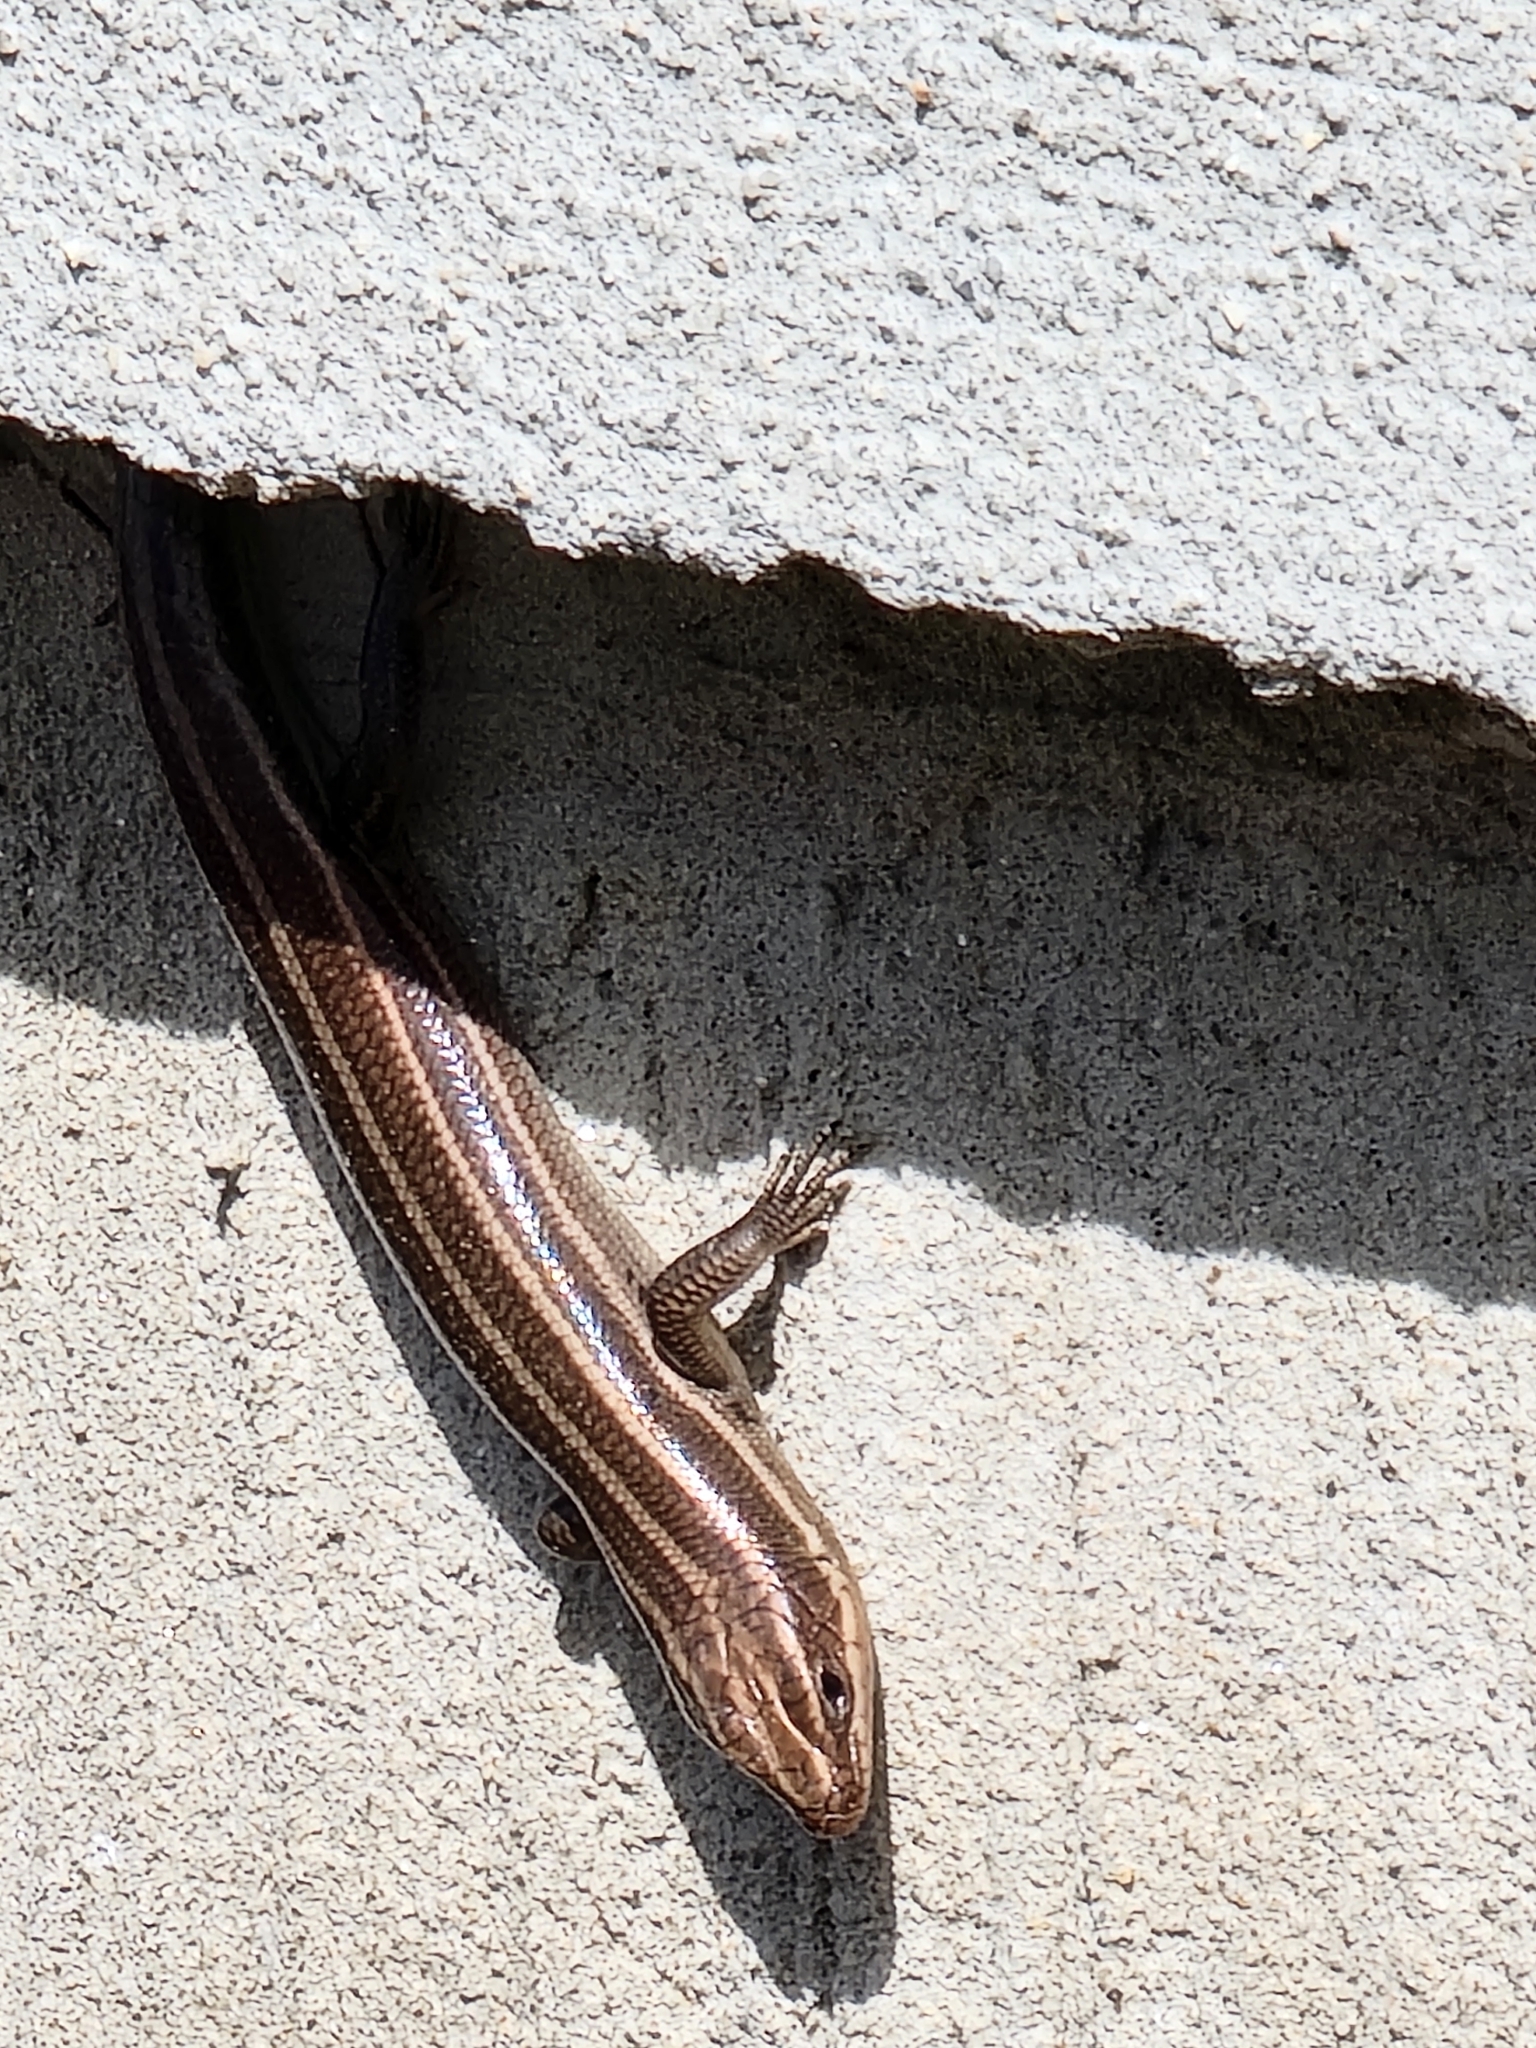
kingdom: Animalia
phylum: Chordata
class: Squamata
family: Scincidae
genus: Plestiodon
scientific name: Plestiodon fasciatus
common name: Five-lined skink
